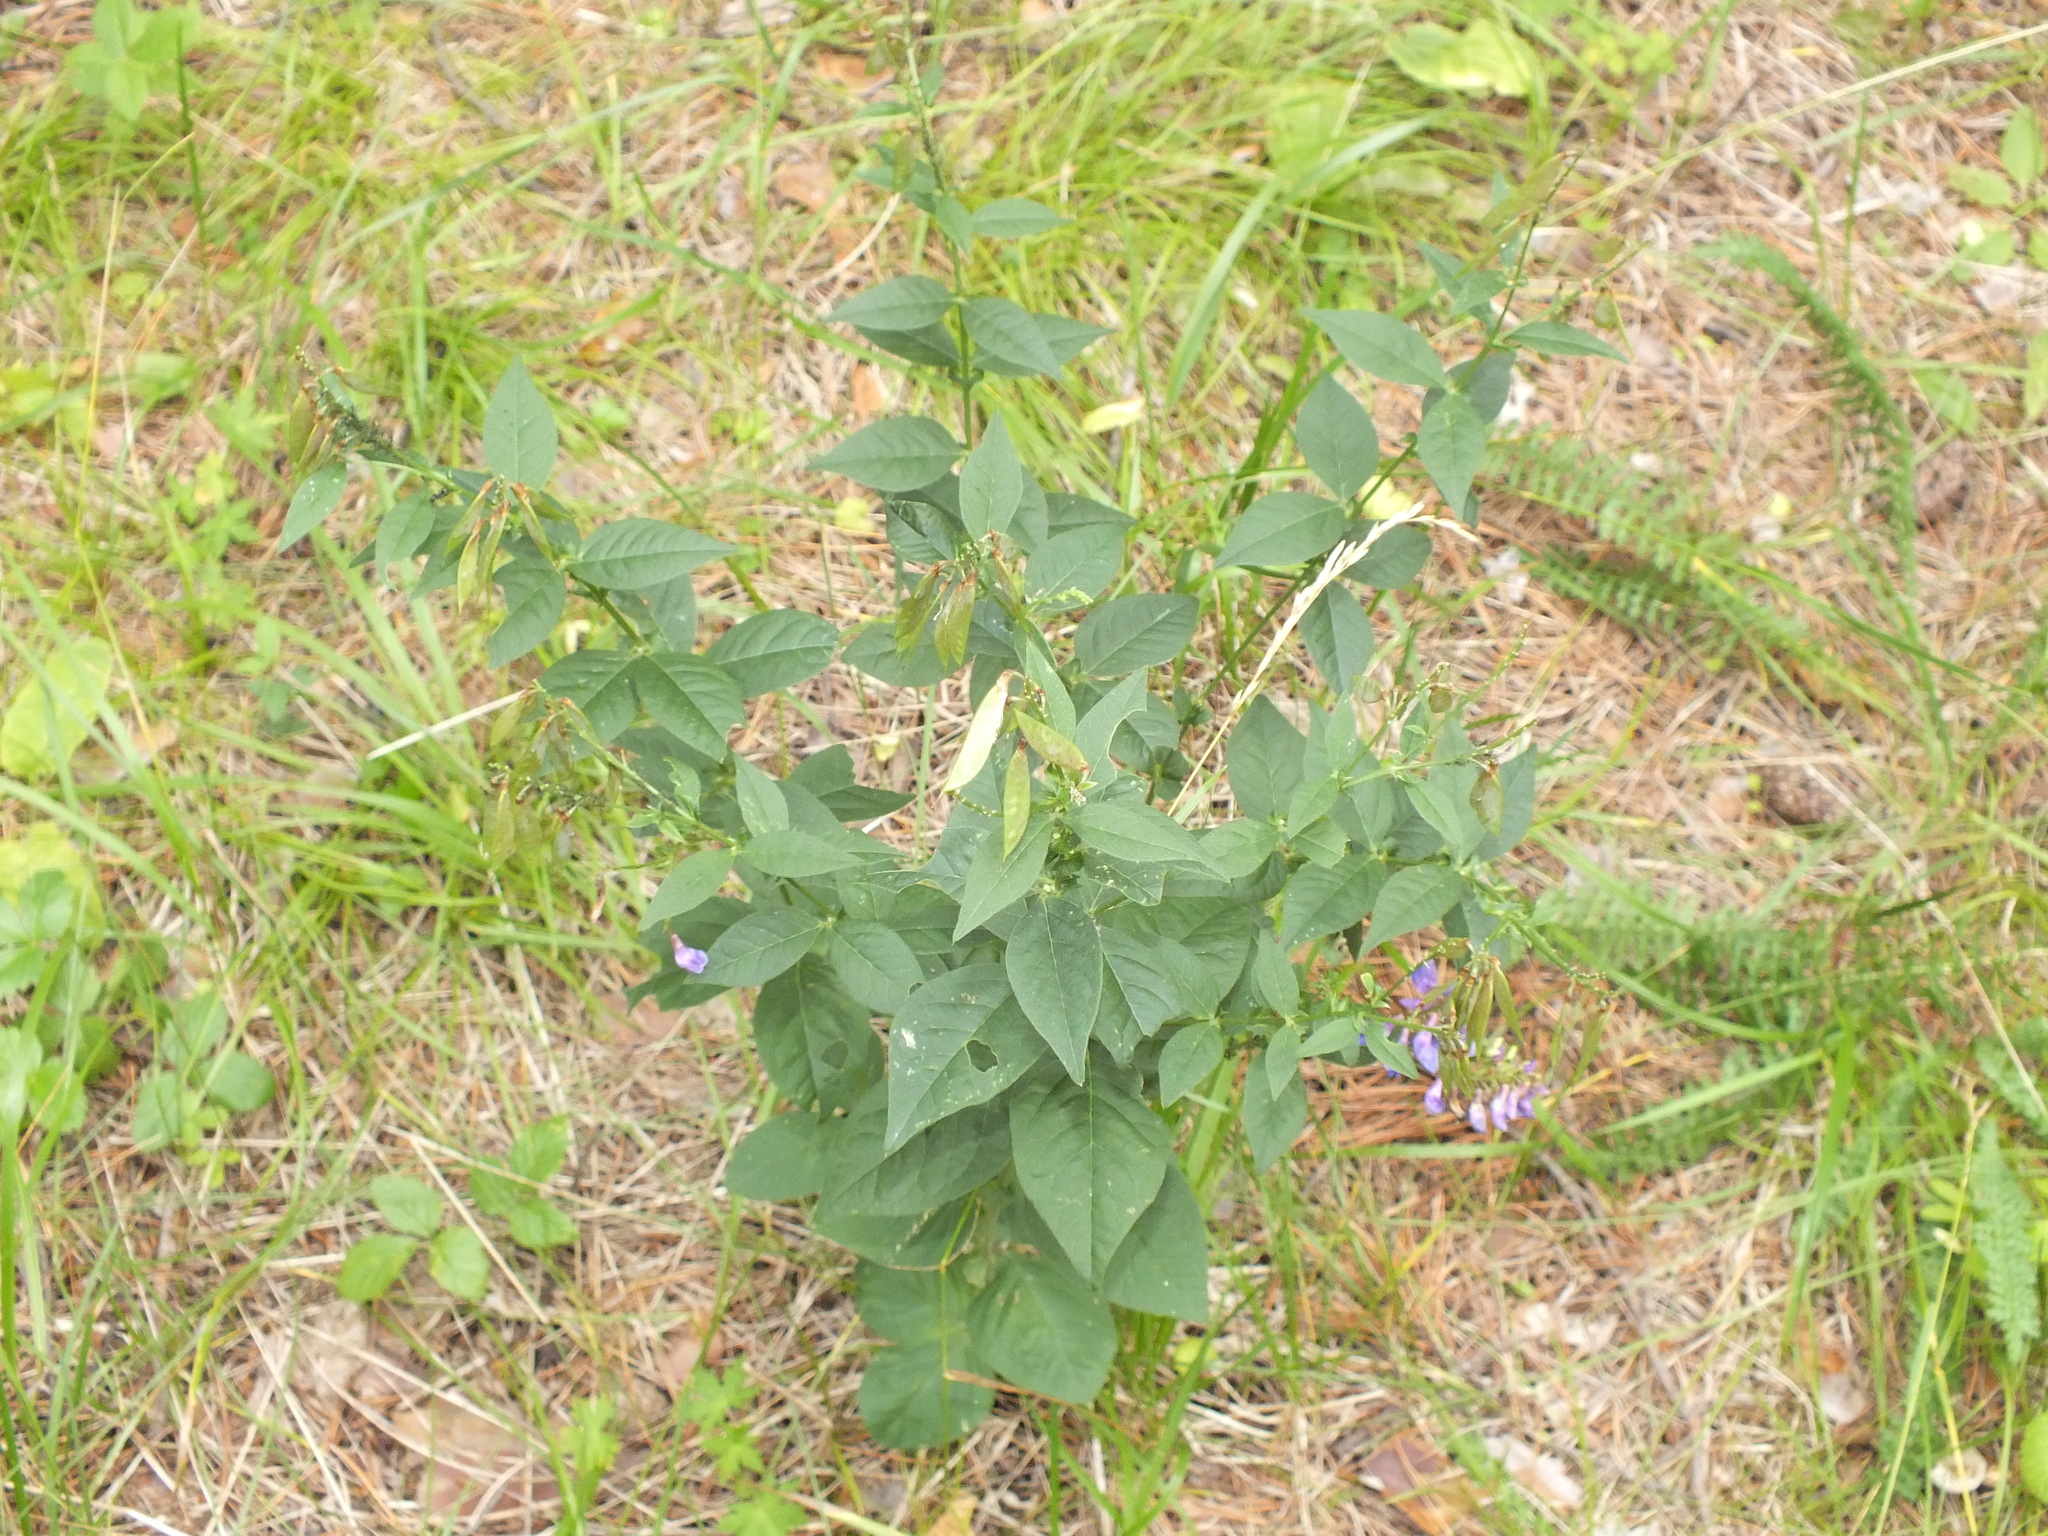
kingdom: Plantae
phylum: Tracheophyta
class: Magnoliopsida
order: Fabales
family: Fabaceae
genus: Vicia
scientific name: Vicia unijuga
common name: Two-leaf vetch
